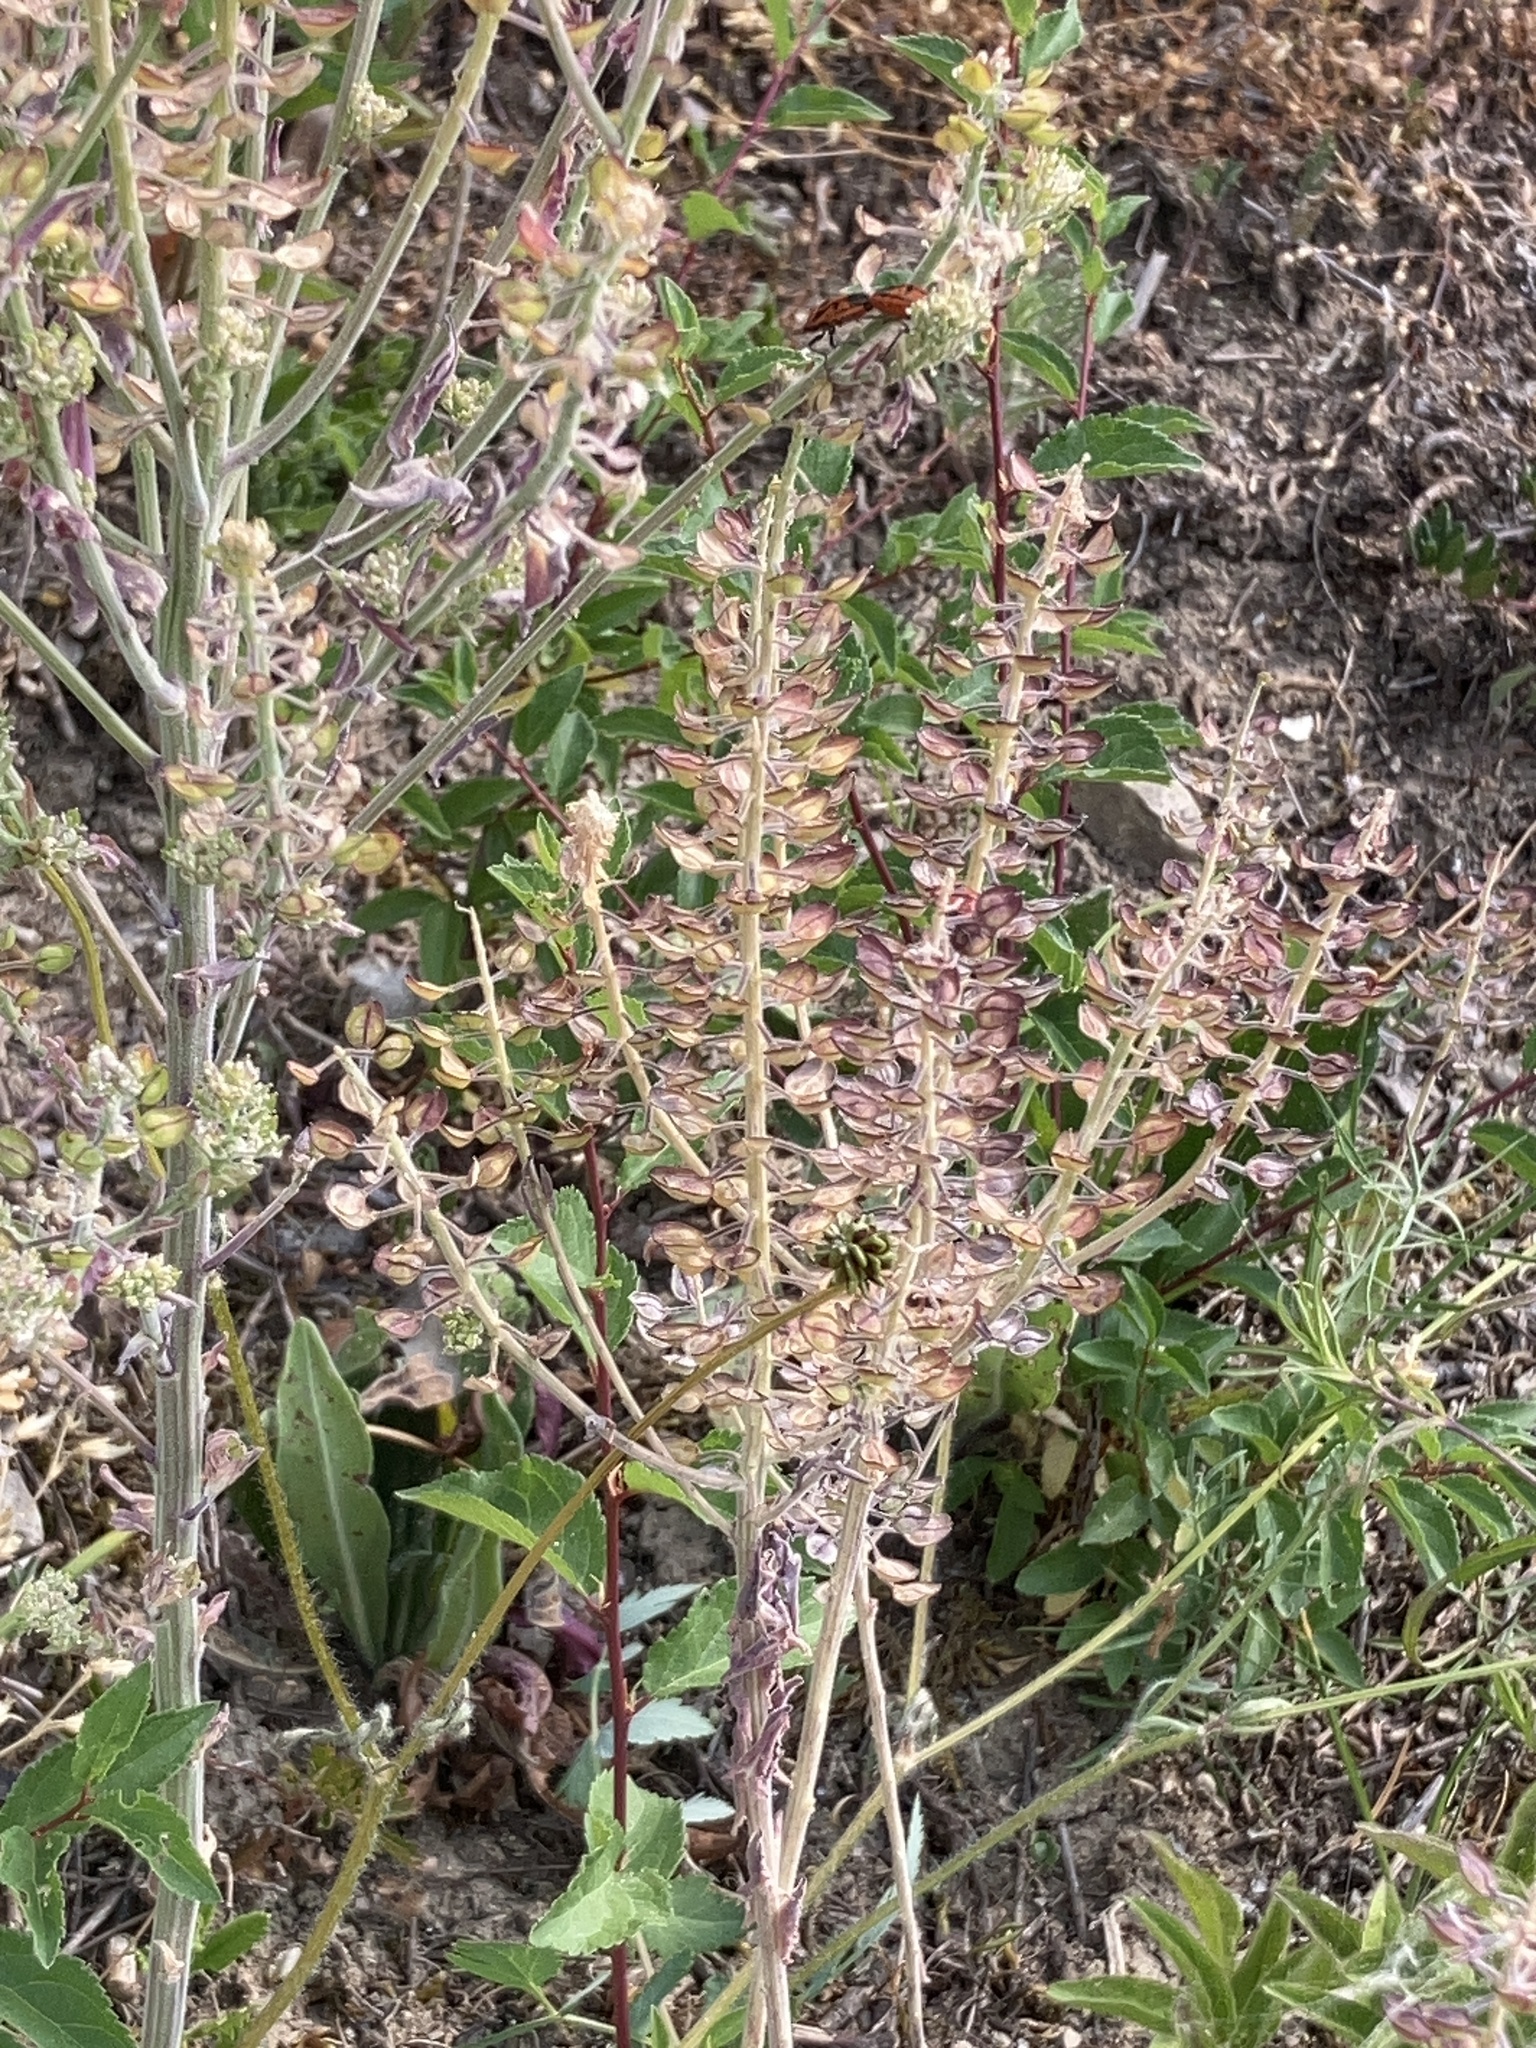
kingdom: Plantae
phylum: Tracheophyta
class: Magnoliopsida
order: Brassicales
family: Brassicaceae
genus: Lepidium
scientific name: Lepidium campestre
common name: Field pepperwort
